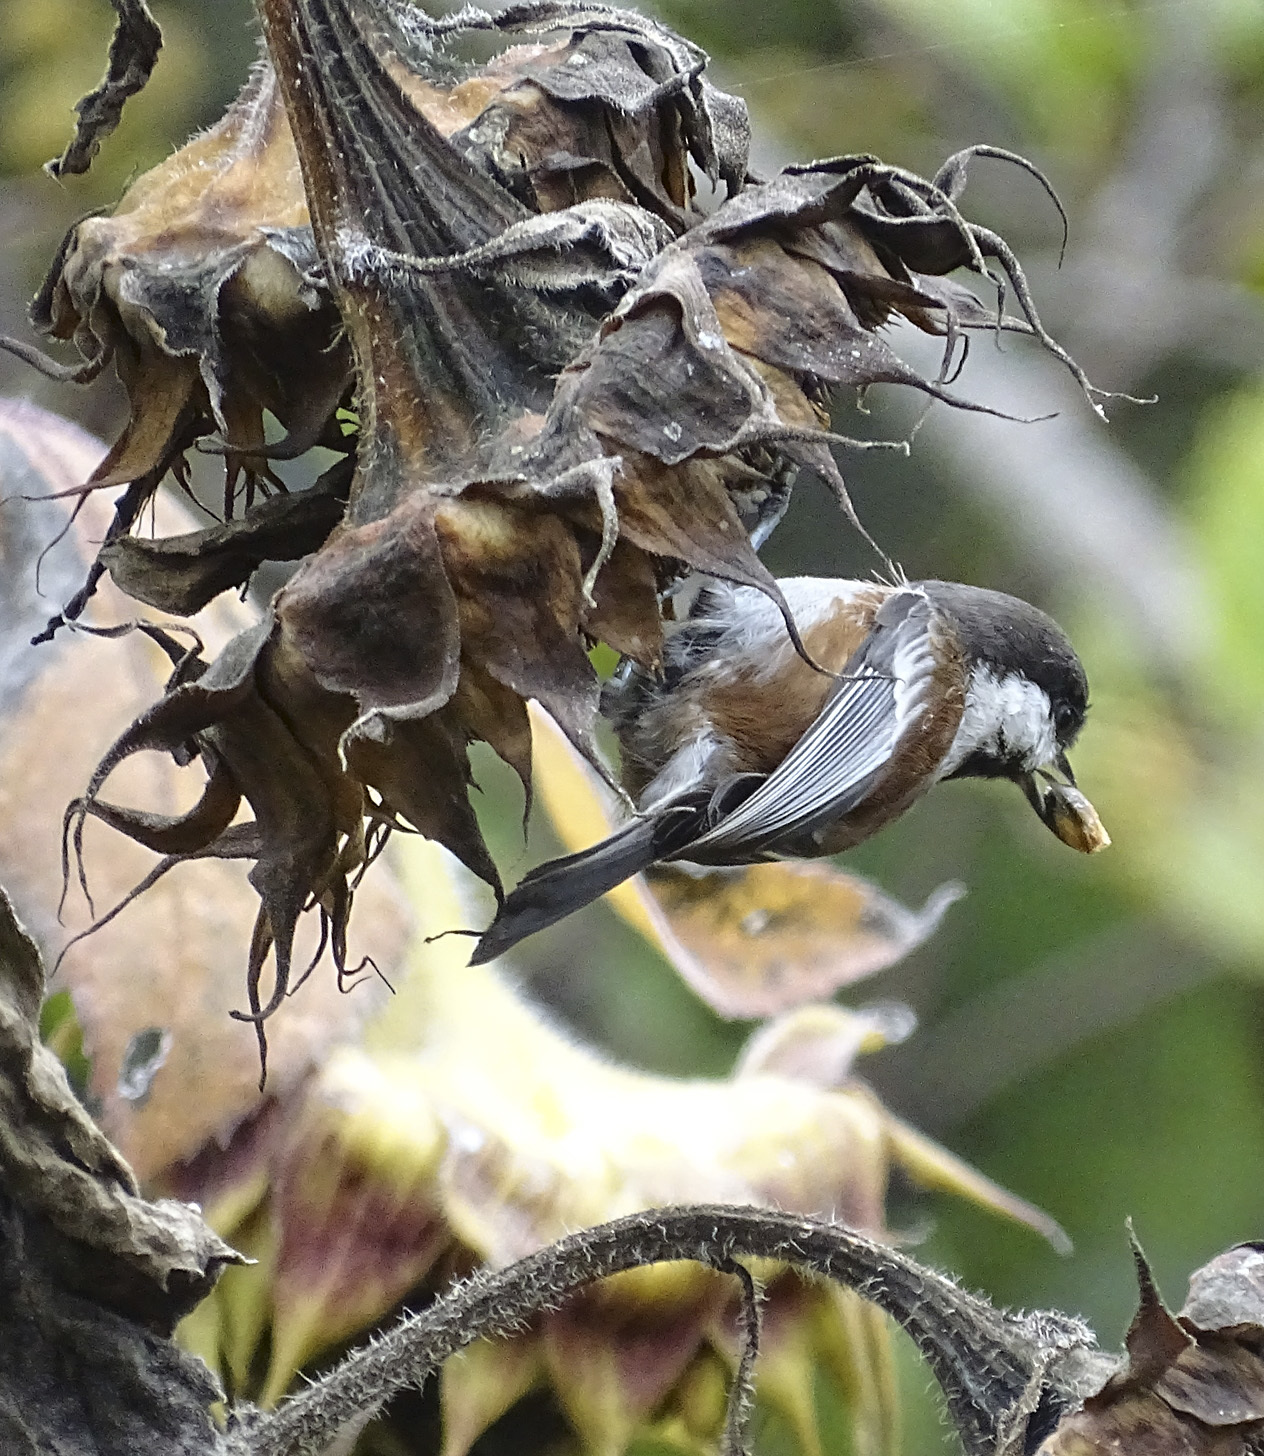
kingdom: Animalia
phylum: Chordata
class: Aves
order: Passeriformes
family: Paridae
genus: Poecile
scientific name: Poecile rufescens
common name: Chestnut-backed chickadee
